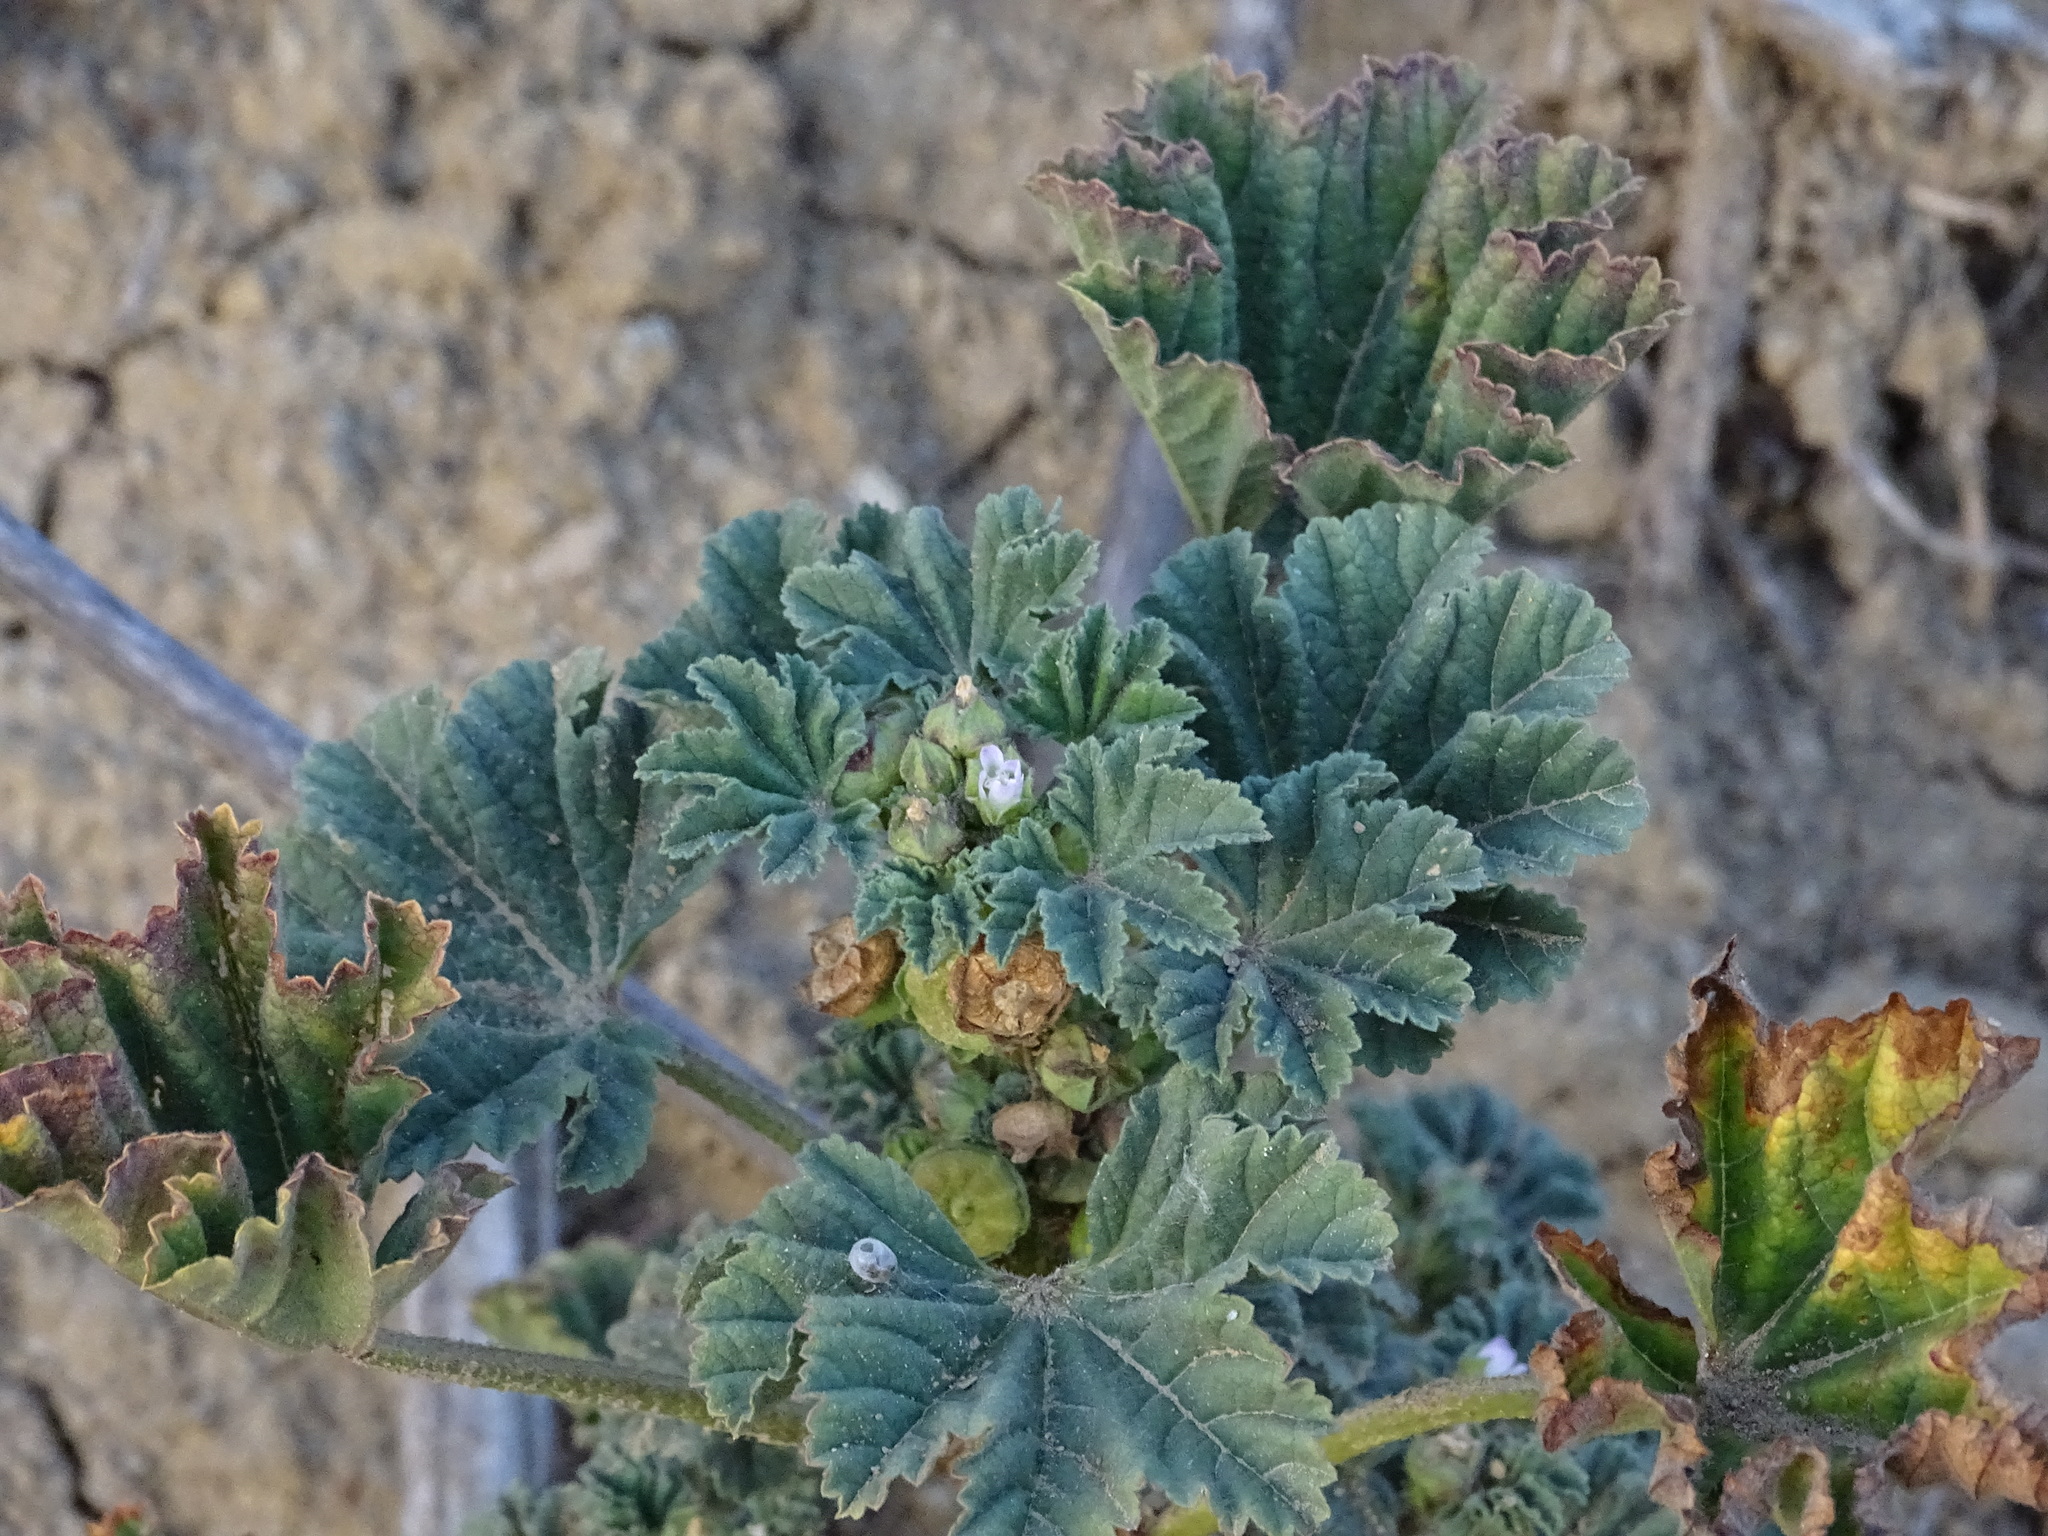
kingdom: Plantae
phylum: Tracheophyta
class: Magnoliopsida
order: Malvales
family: Malvaceae
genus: Malva
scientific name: Malva parviflora
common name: Least mallow
